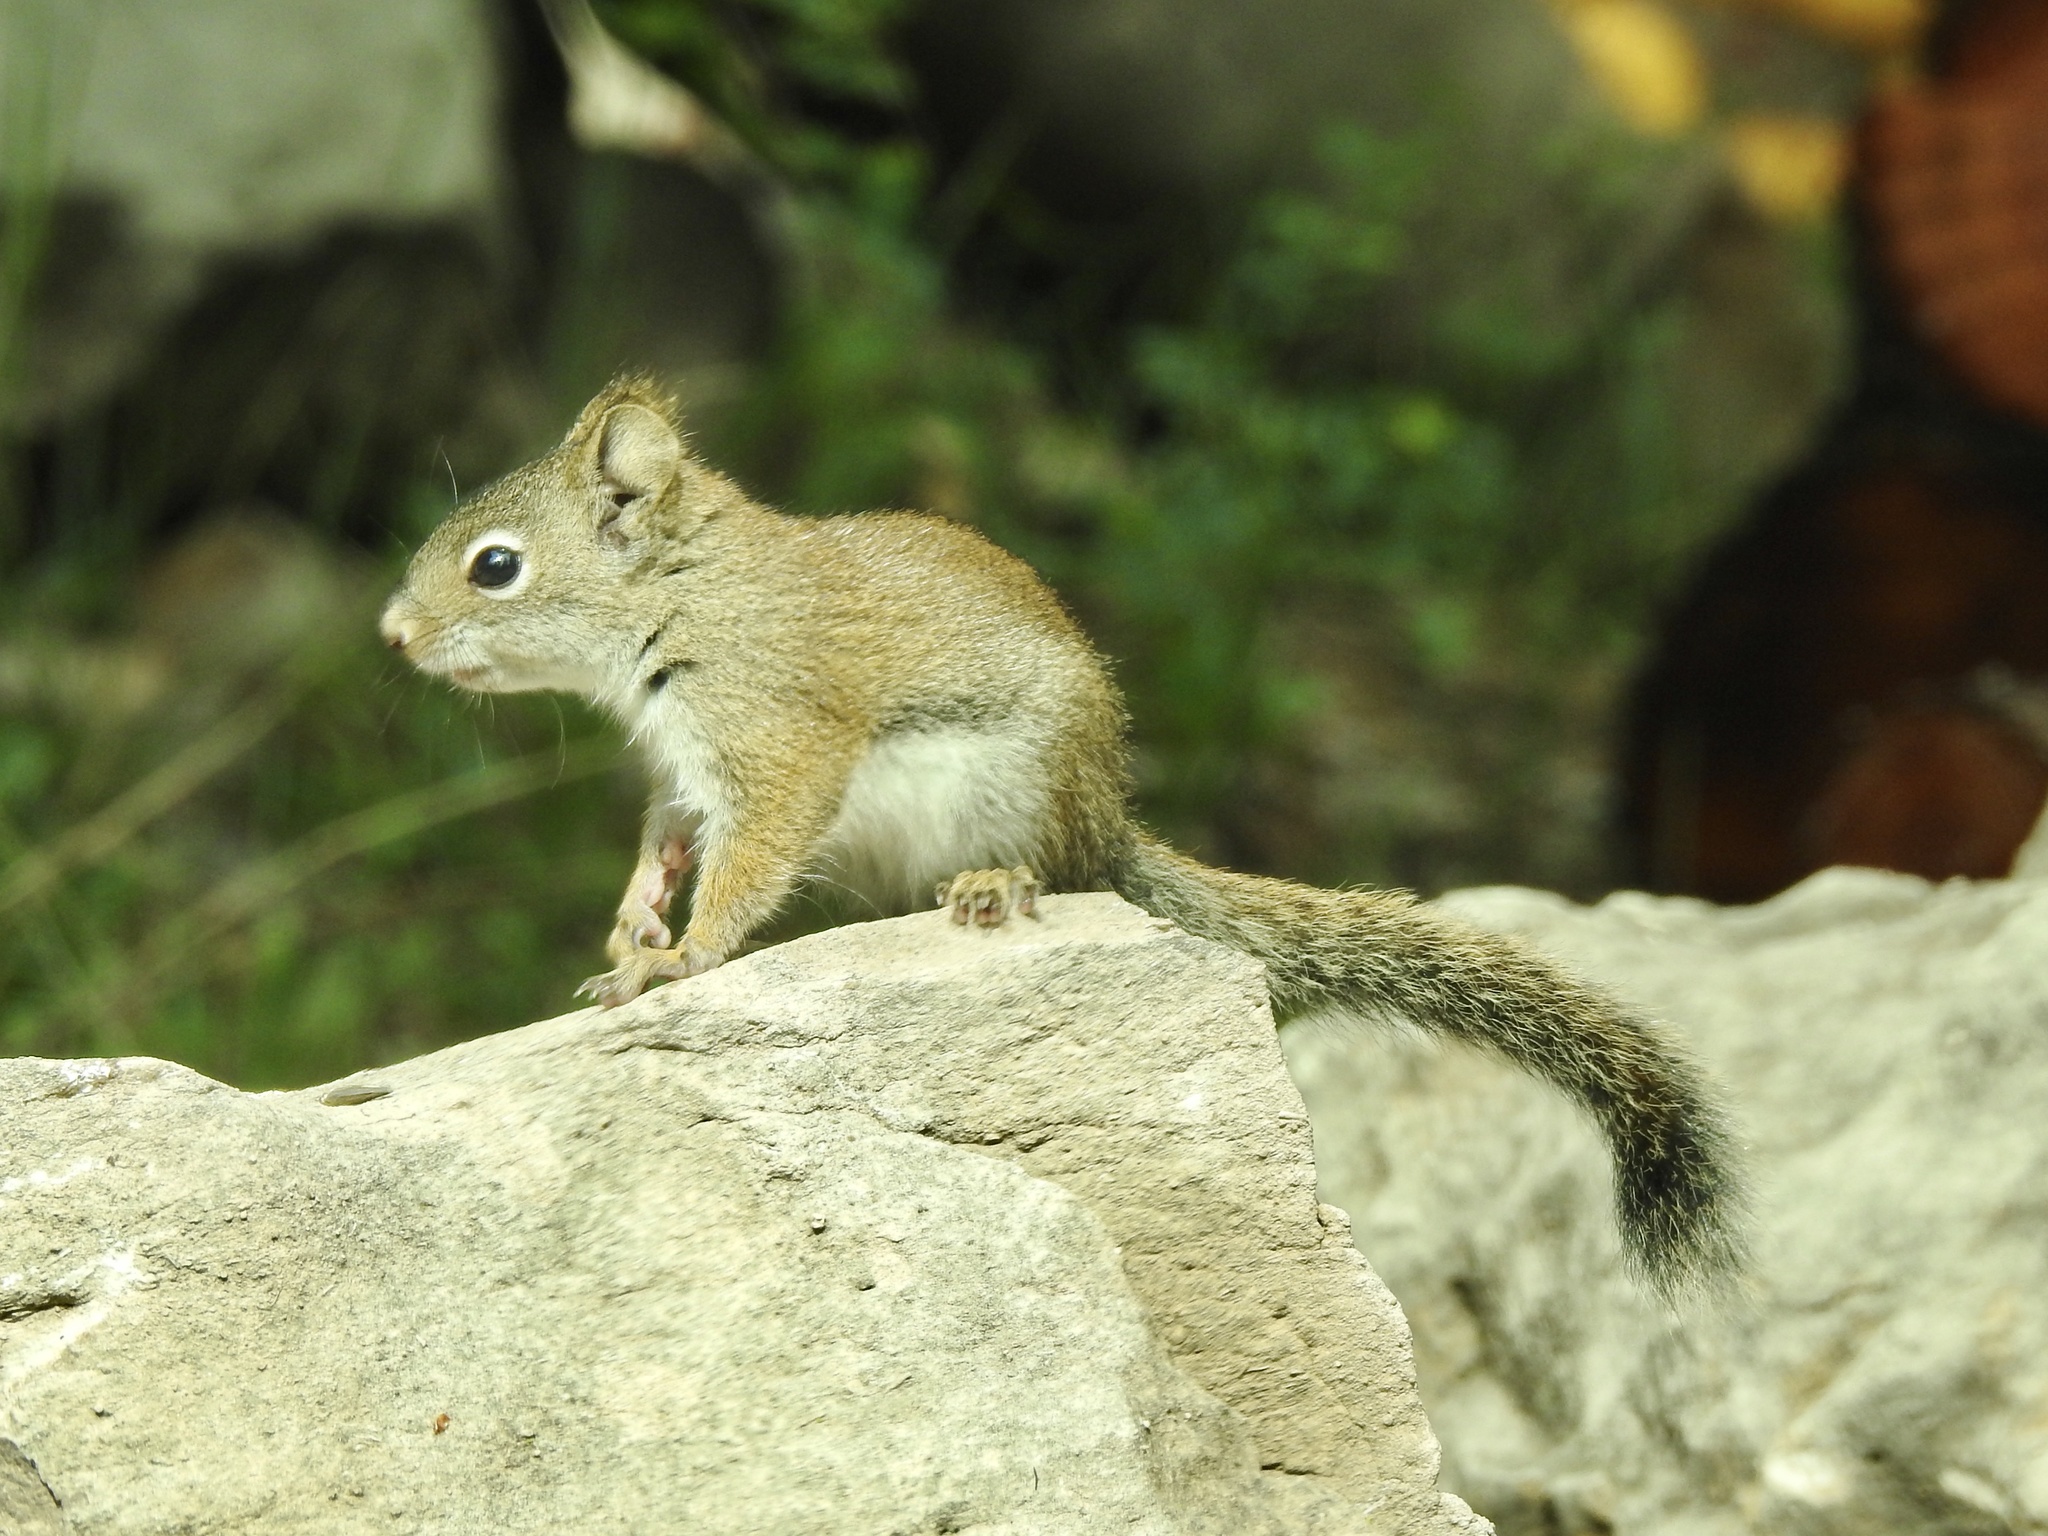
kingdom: Animalia
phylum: Chordata
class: Mammalia
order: Rodentia
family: Sciuridae
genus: Tamiasciurus
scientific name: Tamiasciurus hudsonicus
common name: Red squirrel
